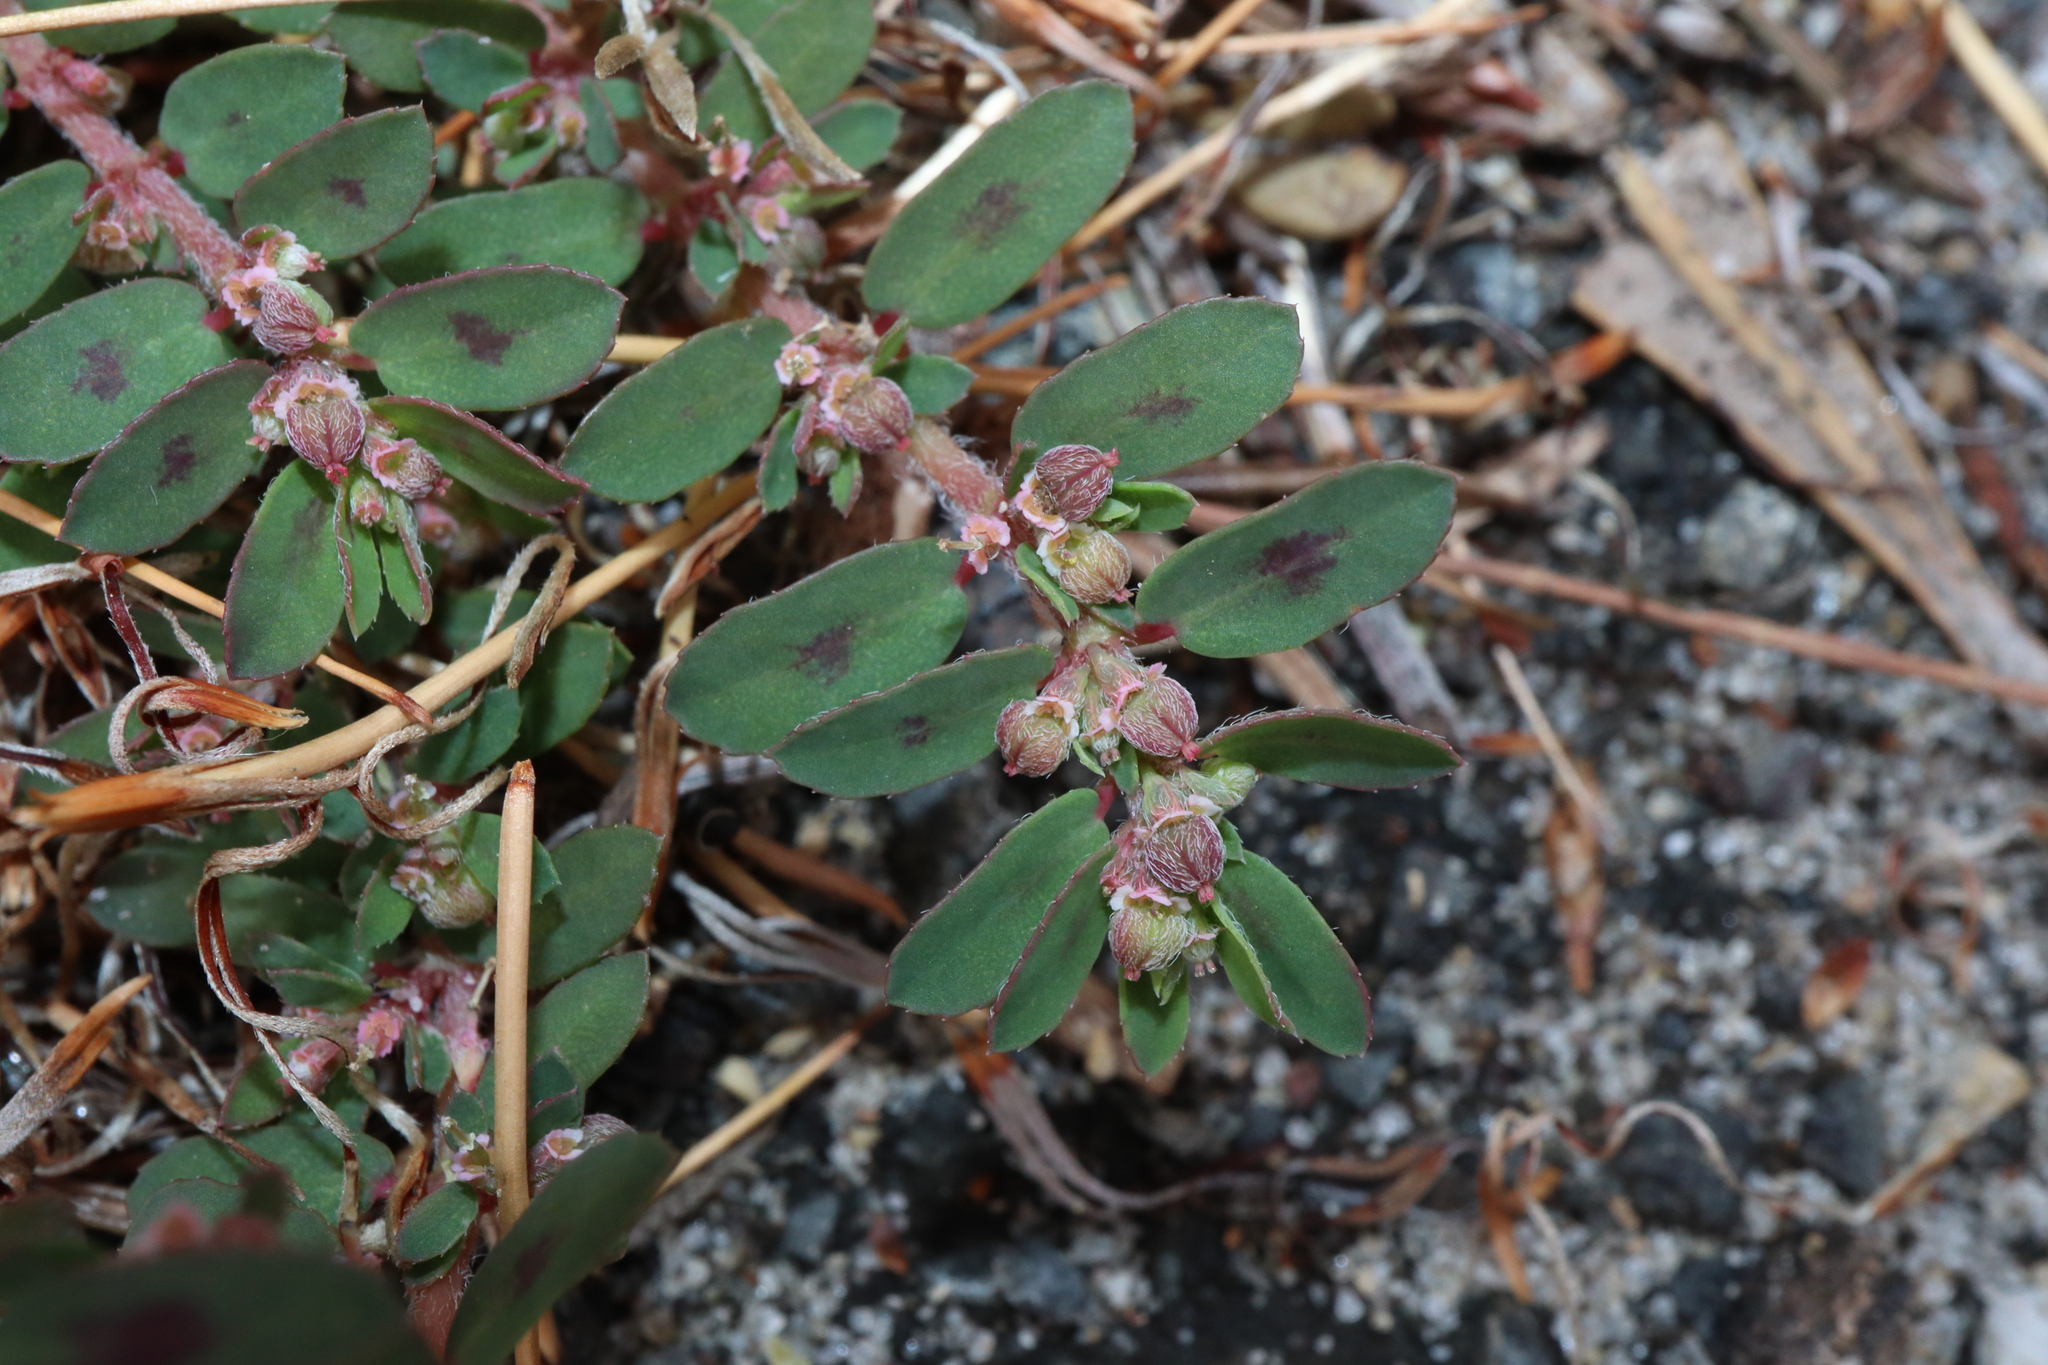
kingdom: Plantae
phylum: Tracheophyta
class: Magnoliopsida
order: Malpighiales
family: Euphorbiaceae
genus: Euphorbia
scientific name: Euphorbia maculata
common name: Spotted spurge
